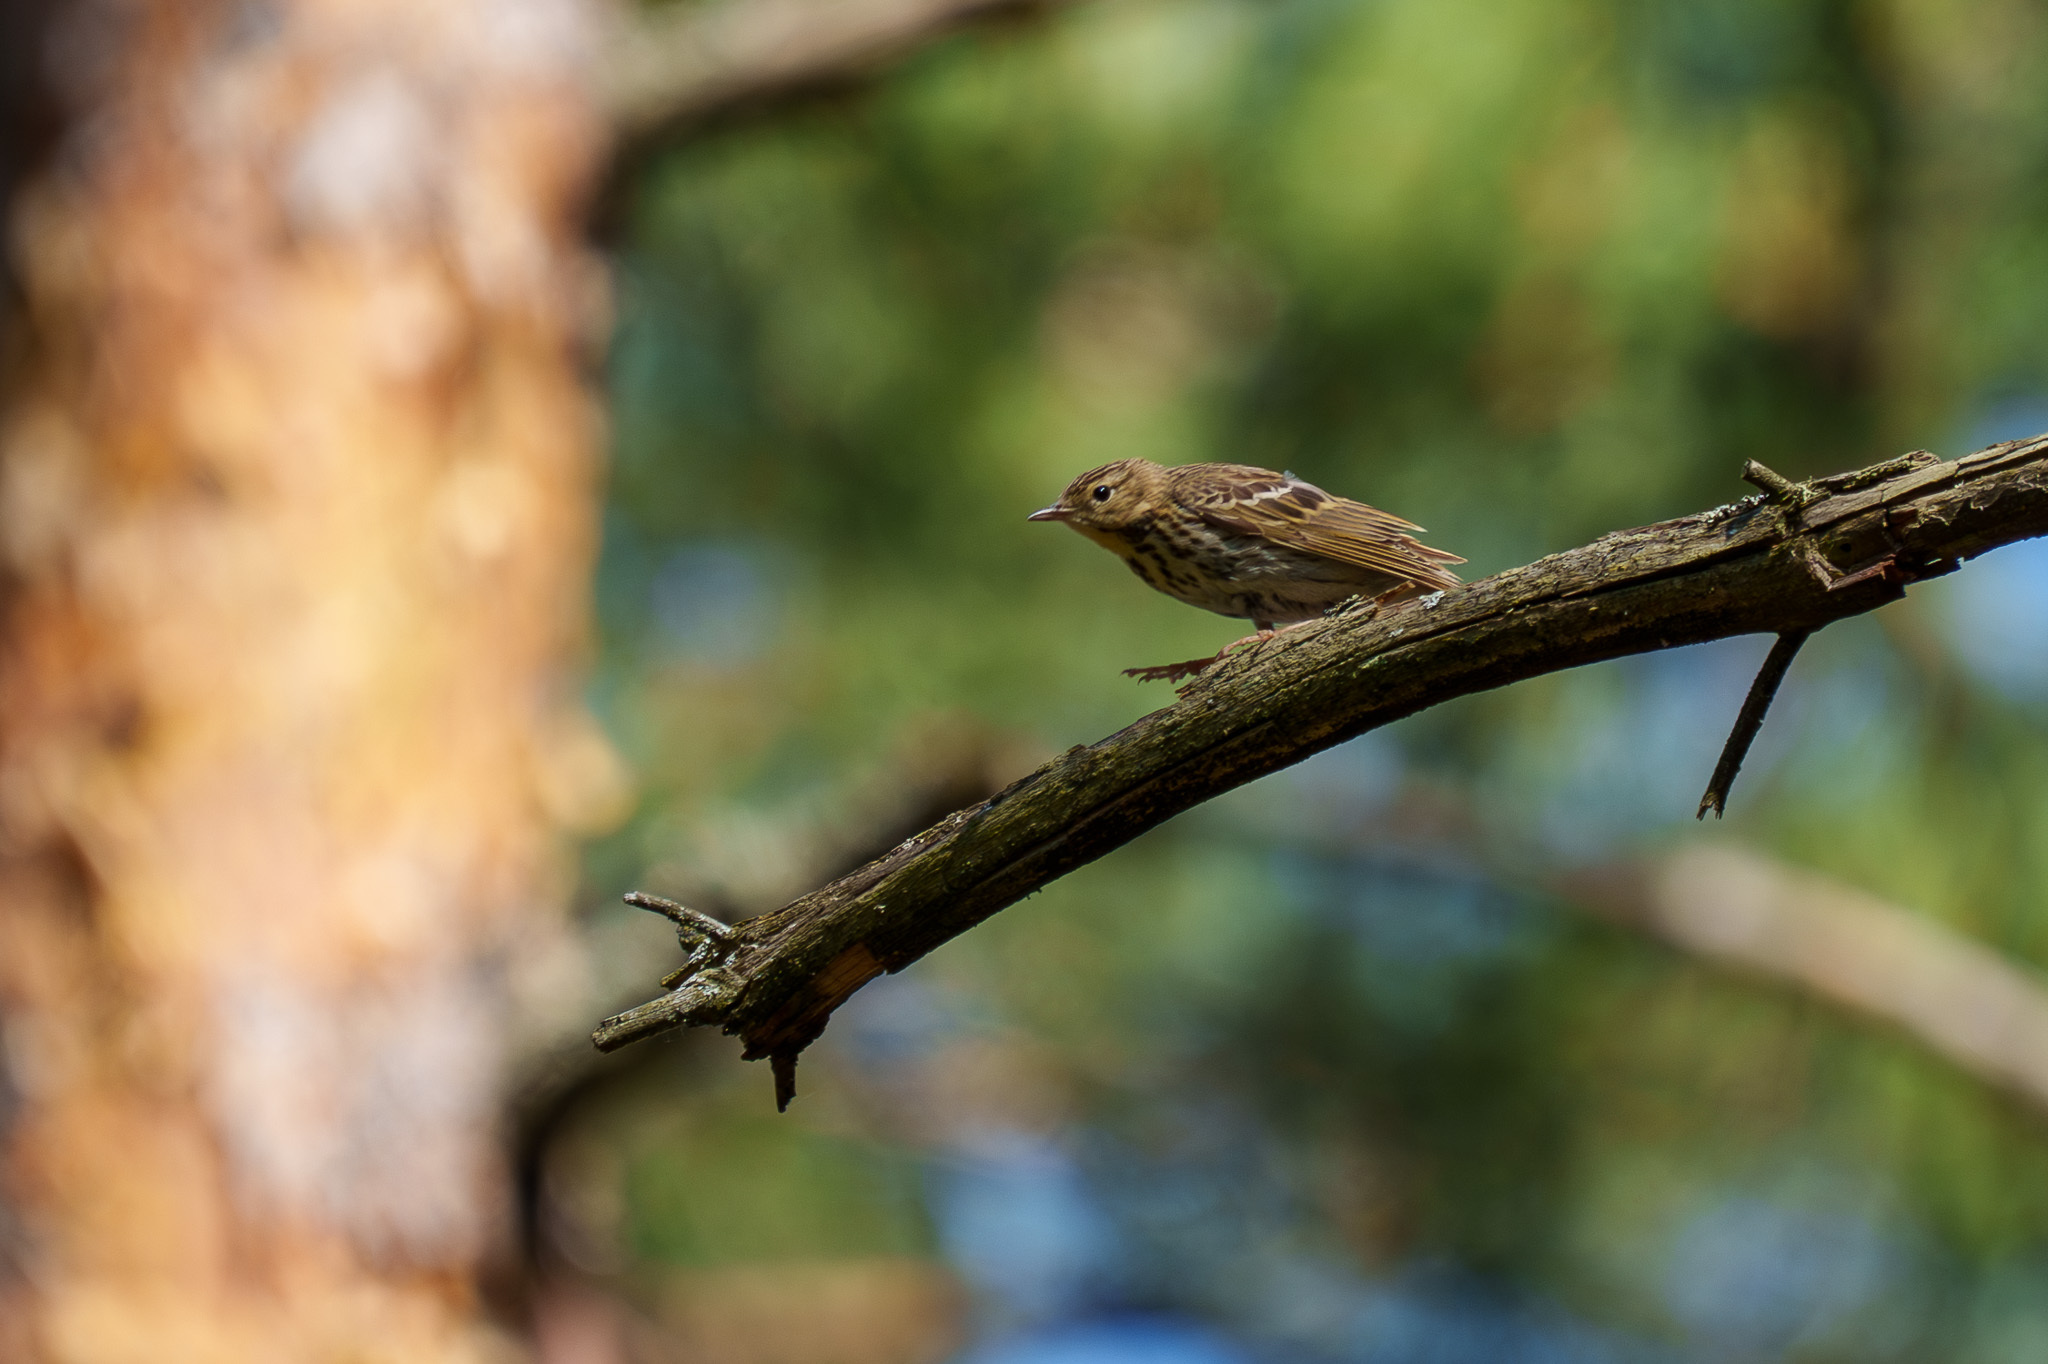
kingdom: Animalia
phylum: Chordata
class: Aves
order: Passeriformes
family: Motacillidae
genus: Anthus
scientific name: Anthus trivialis
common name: Tree pipit
